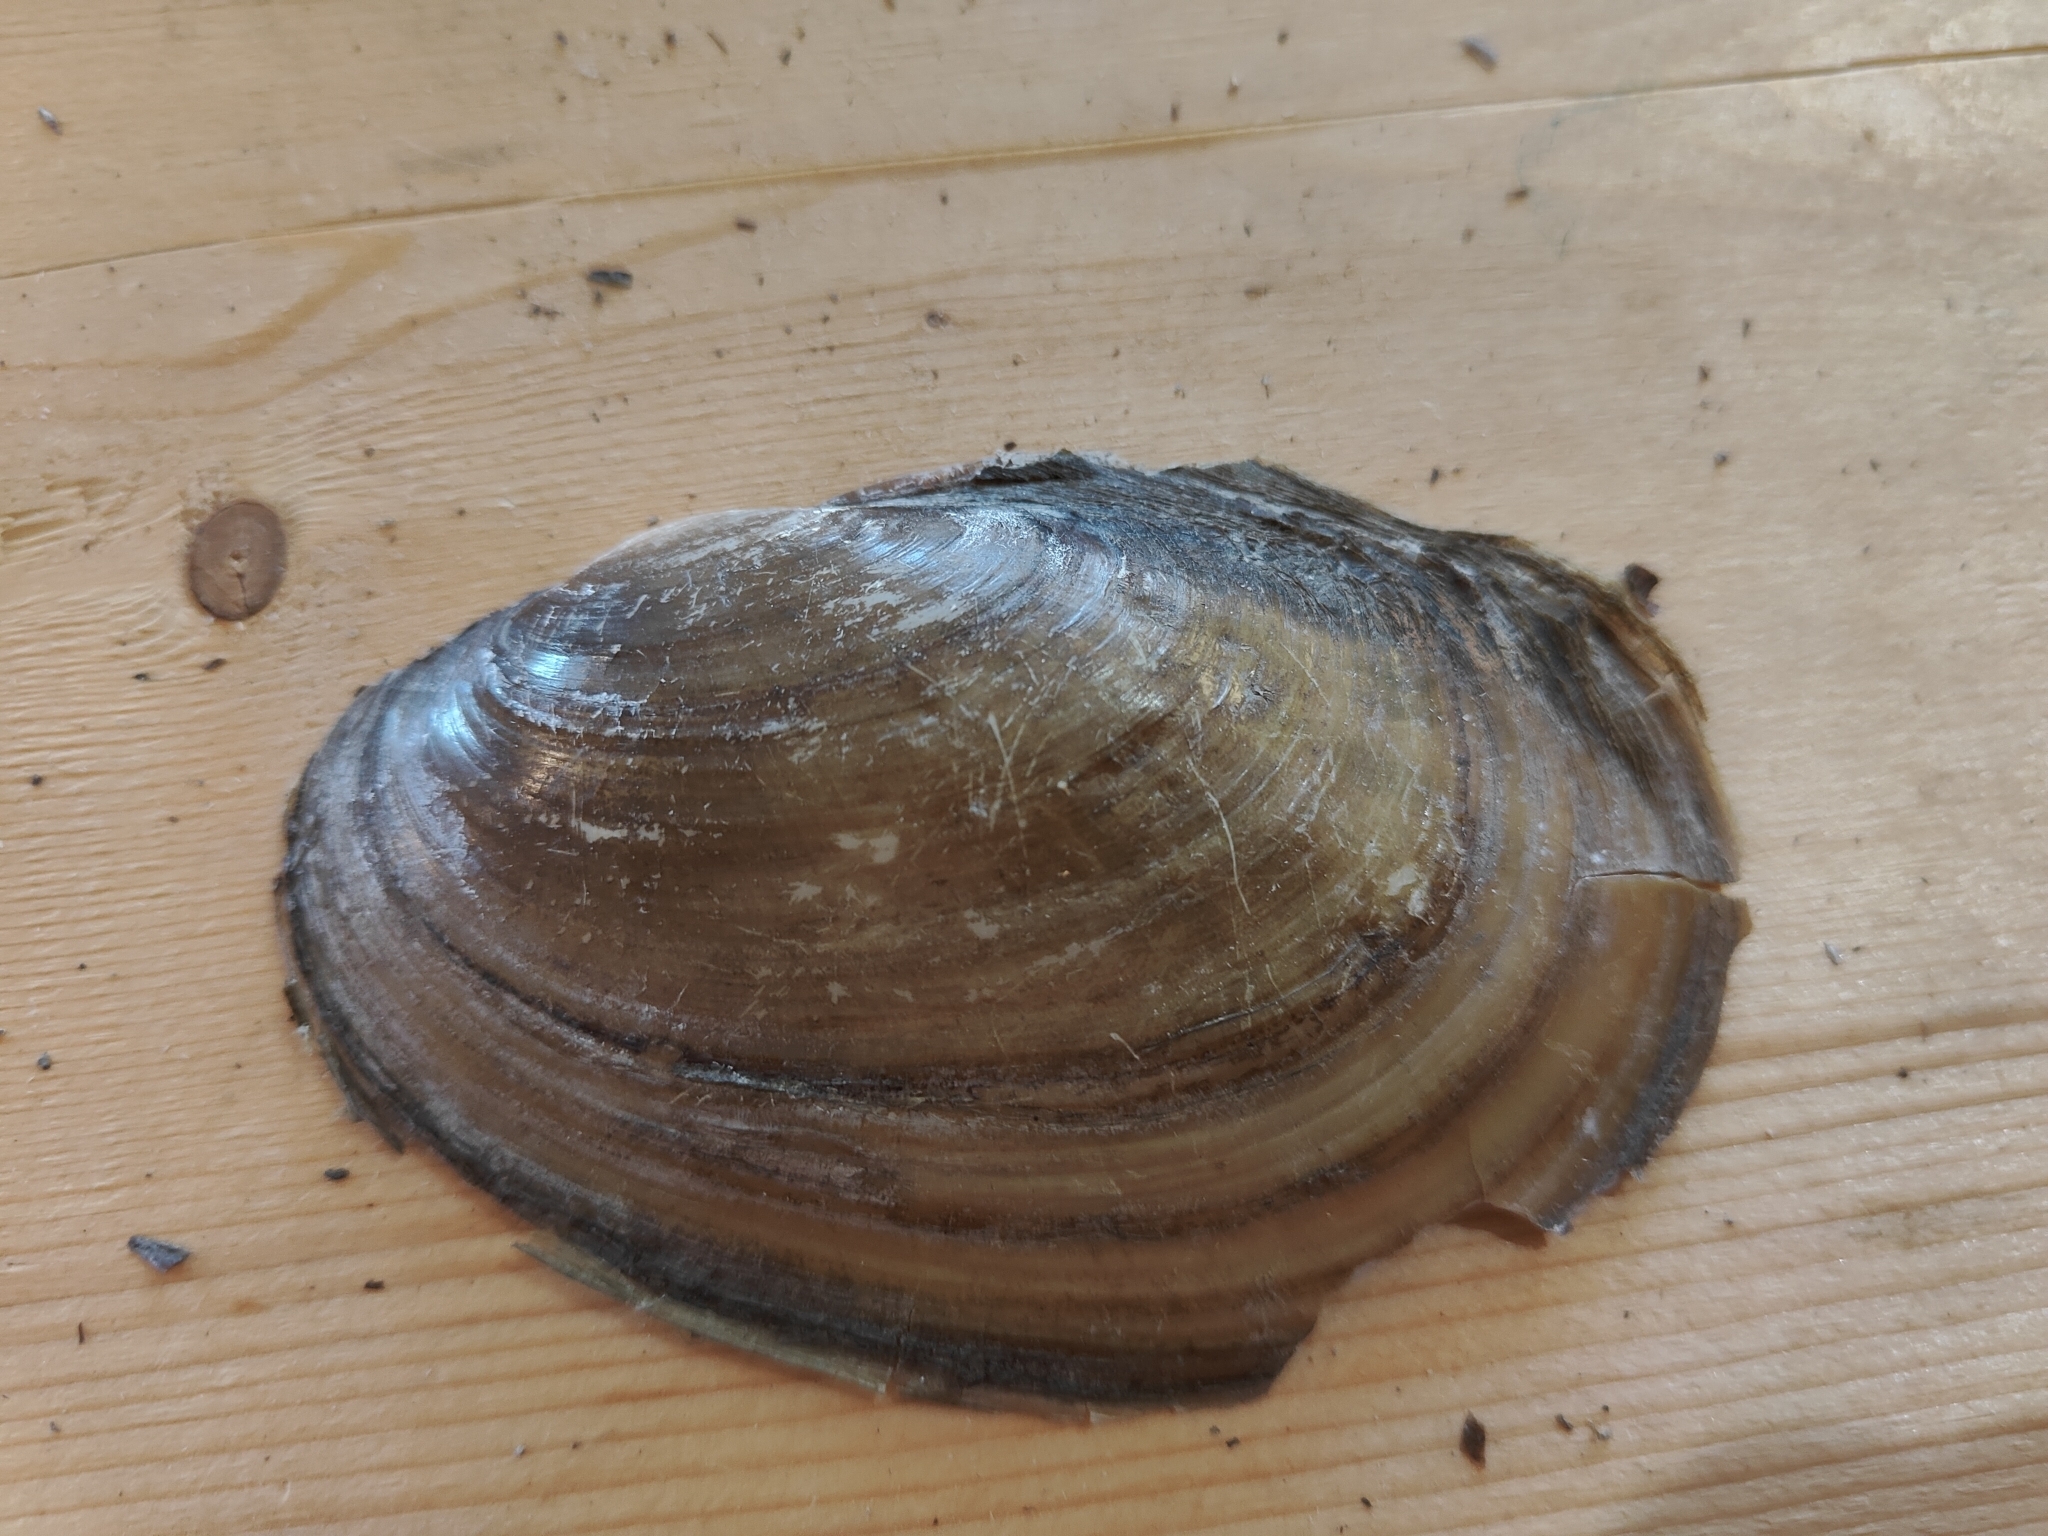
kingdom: Animalia
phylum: Mollusca
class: Bivalvia
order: Unionida
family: Unionidae
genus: Potamilus
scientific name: Potamilus fragilis
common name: Fragile papershell
